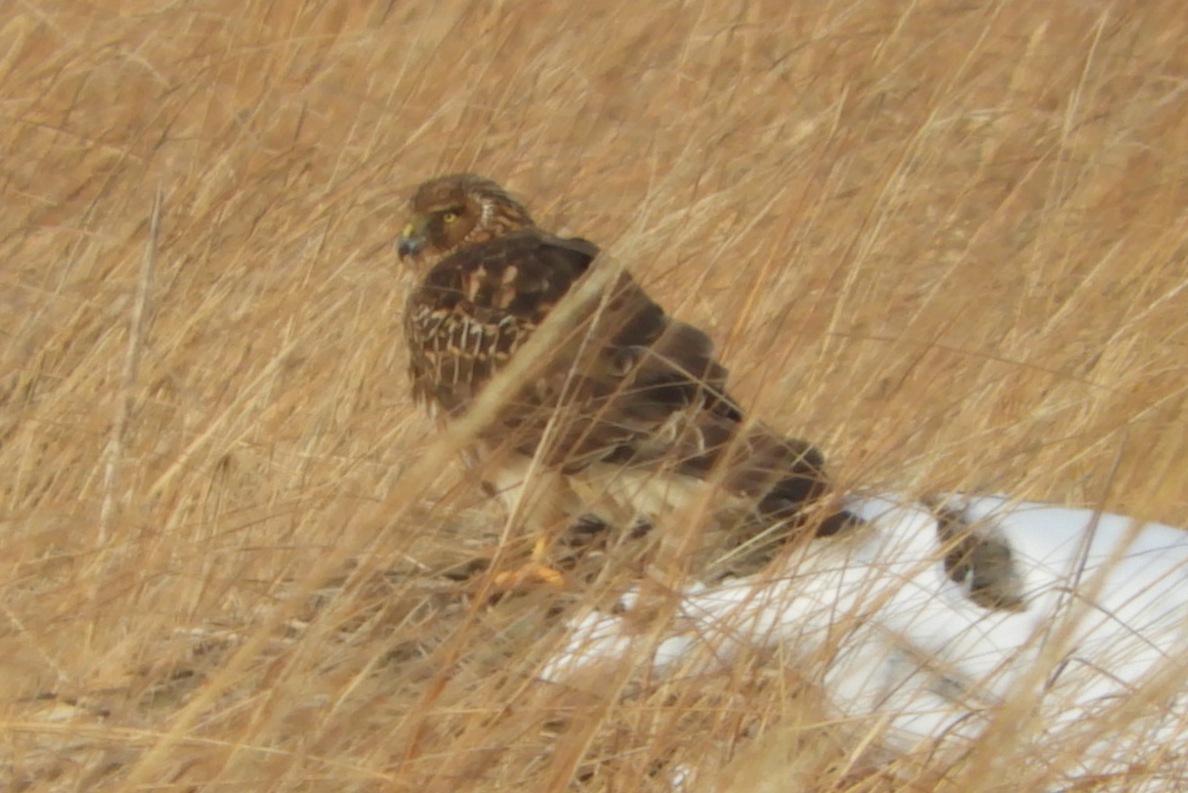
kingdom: Animalia
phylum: Chordata
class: Aves
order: Accipitriformes
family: Accipitridae
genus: Circus
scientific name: Circus cyaneus
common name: Hen harrier
